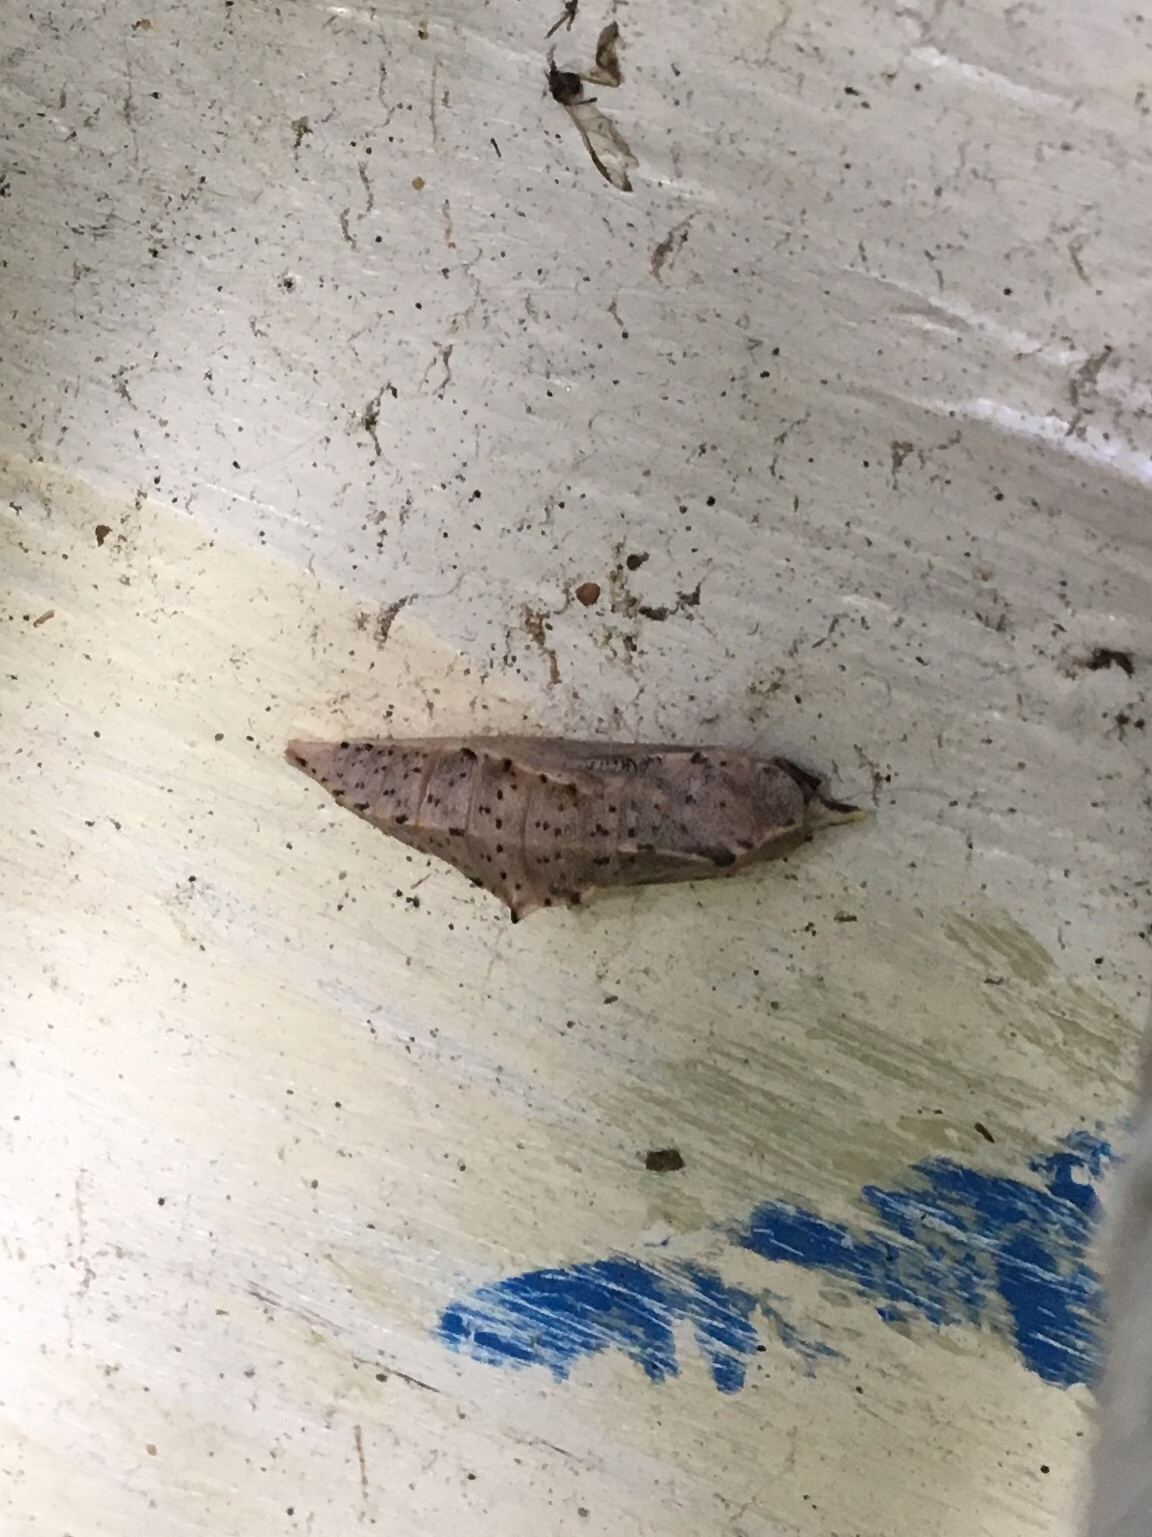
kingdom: Animalia
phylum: Arthropoda
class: Insecta
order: Lepidoptera
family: Pieridae
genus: Pieris
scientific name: Pieris rapae
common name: Small white
